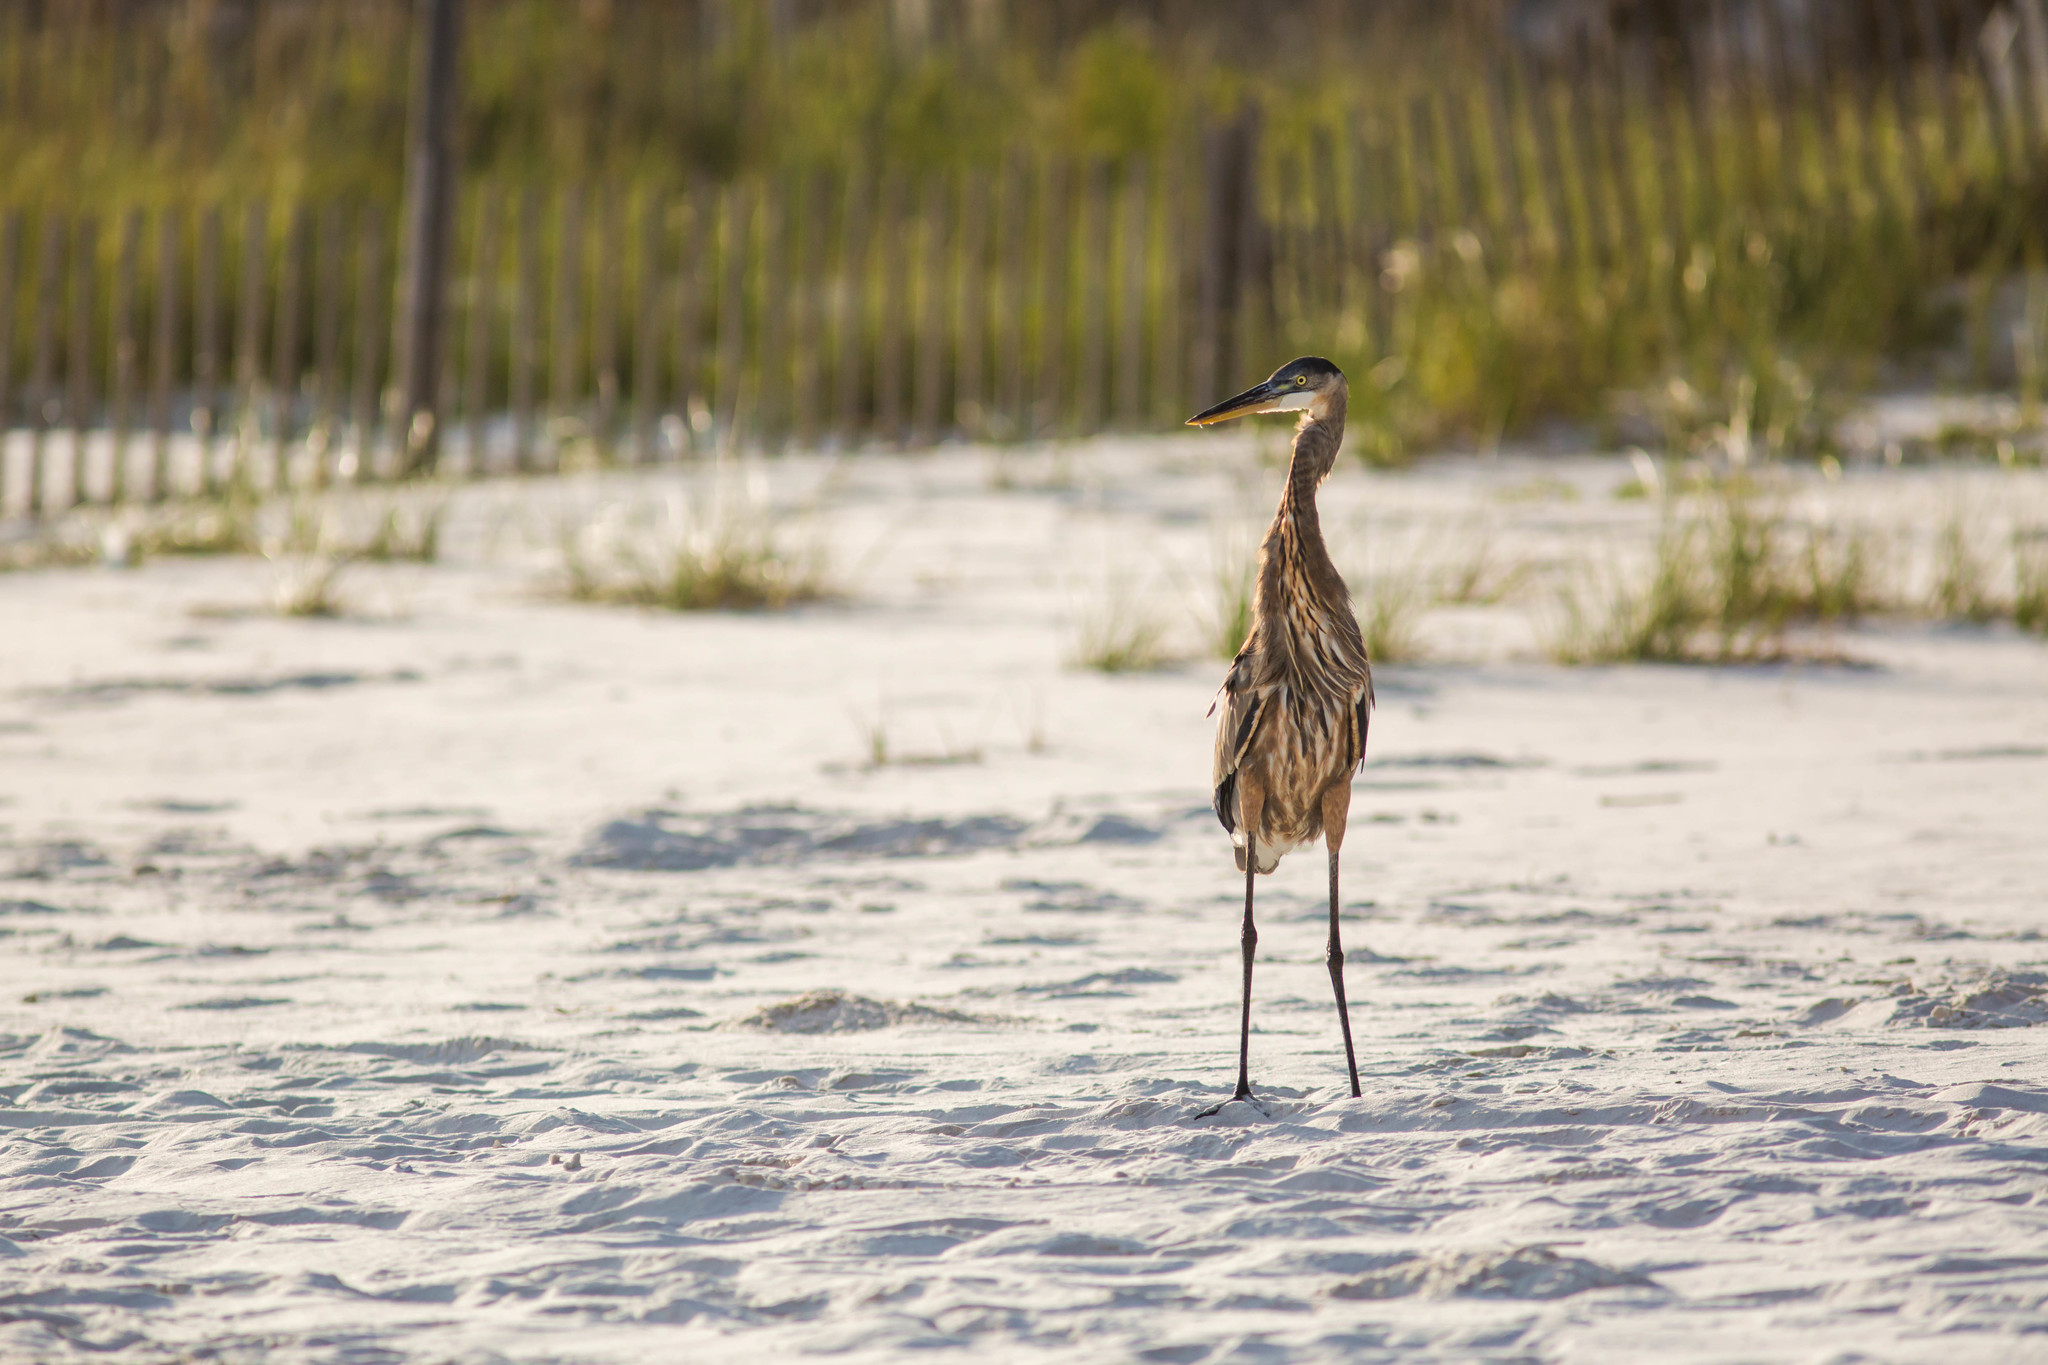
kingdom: Animalia
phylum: Chordata
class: Aves
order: Pelecaniformes
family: Ardeidae
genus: Ardea
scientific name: Ardea herodias
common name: Great blue heron
